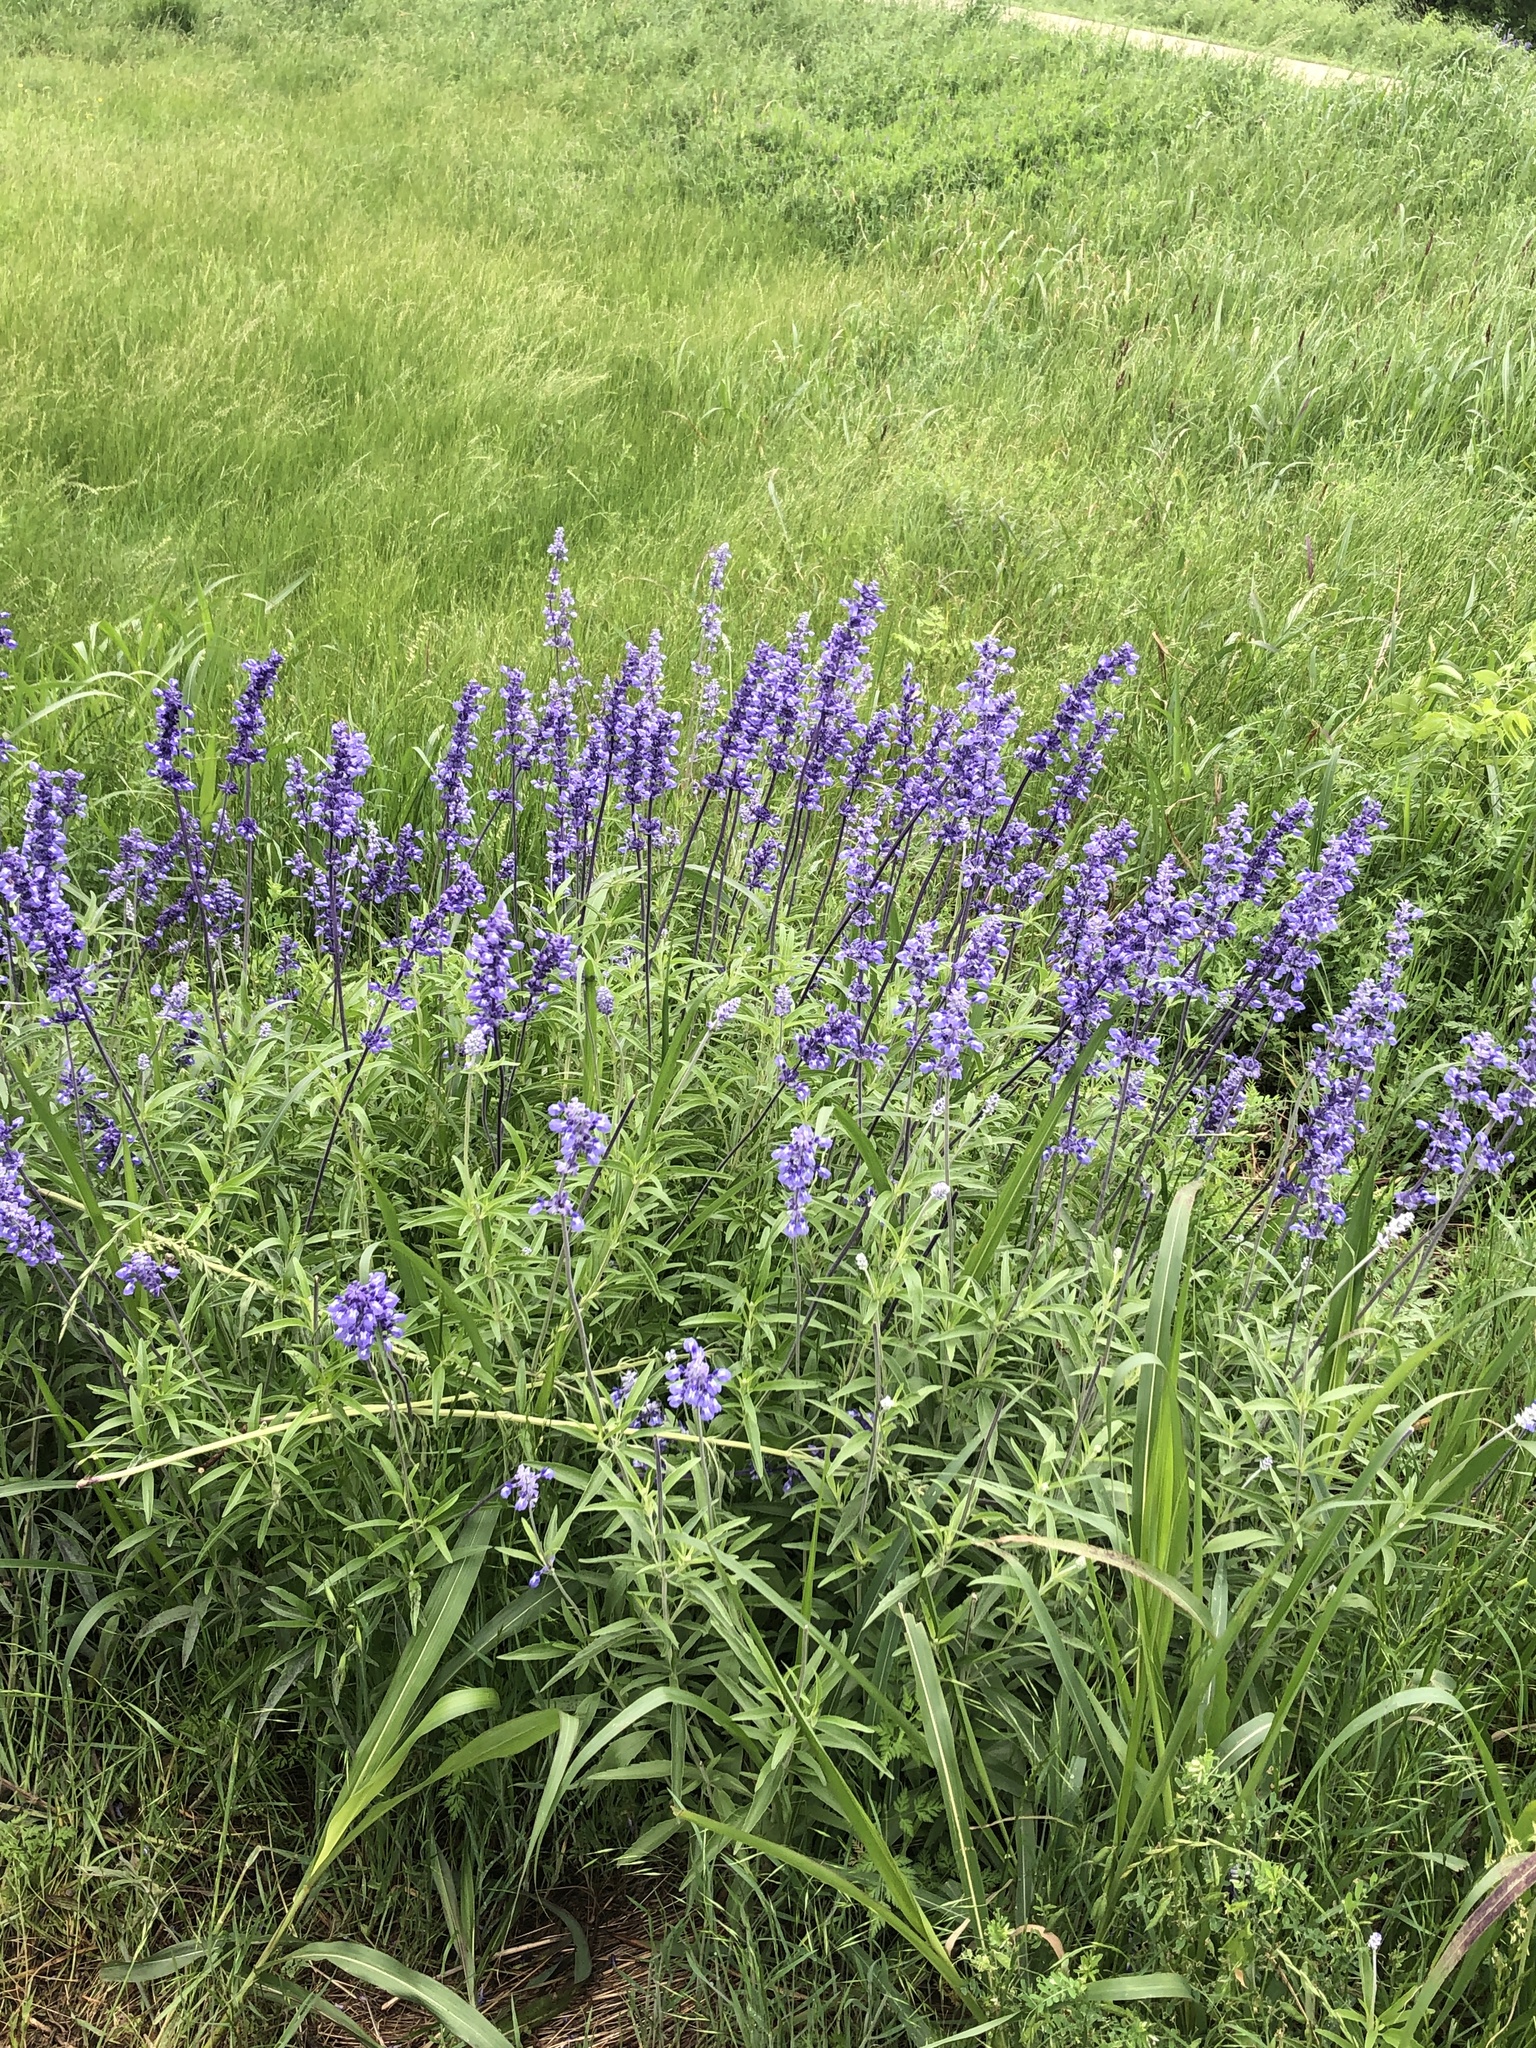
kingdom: Plantae
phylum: Tracheophyta
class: Magnoliopsida
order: Lamiales
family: Lamiaceae
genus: Salvia
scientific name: Salvia farinacea
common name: Mealy sage
